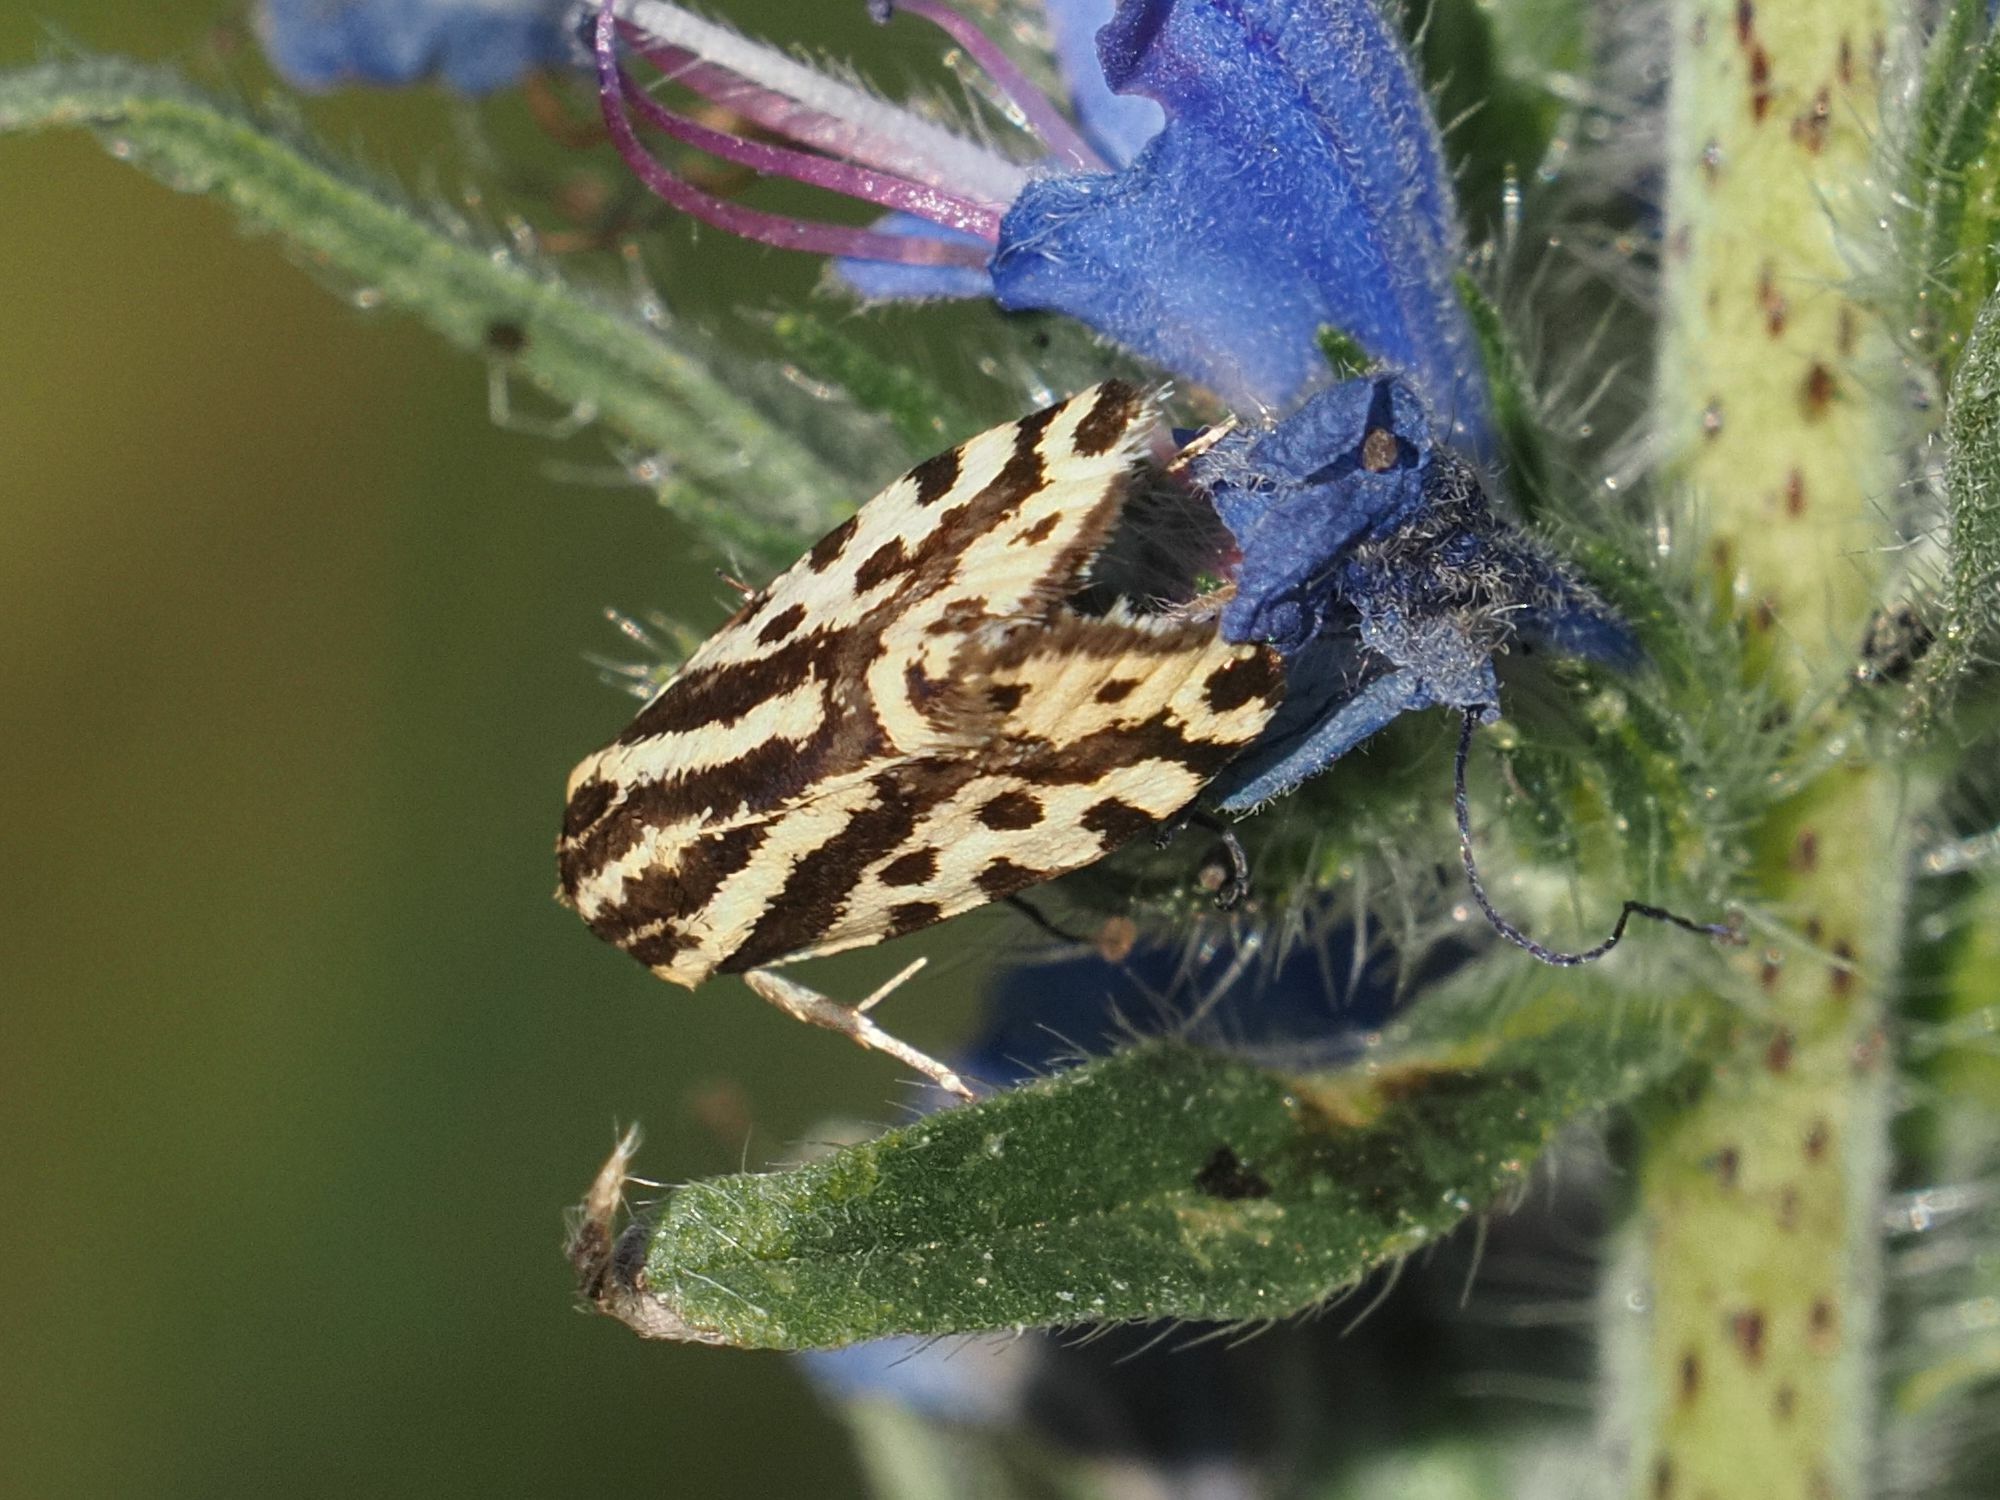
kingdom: Animalia
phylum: Arthropoda
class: Insecta
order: Lepidoptera
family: Noctuidae
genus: Acontia
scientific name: Acontia trabealis
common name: Spotted sulphur
